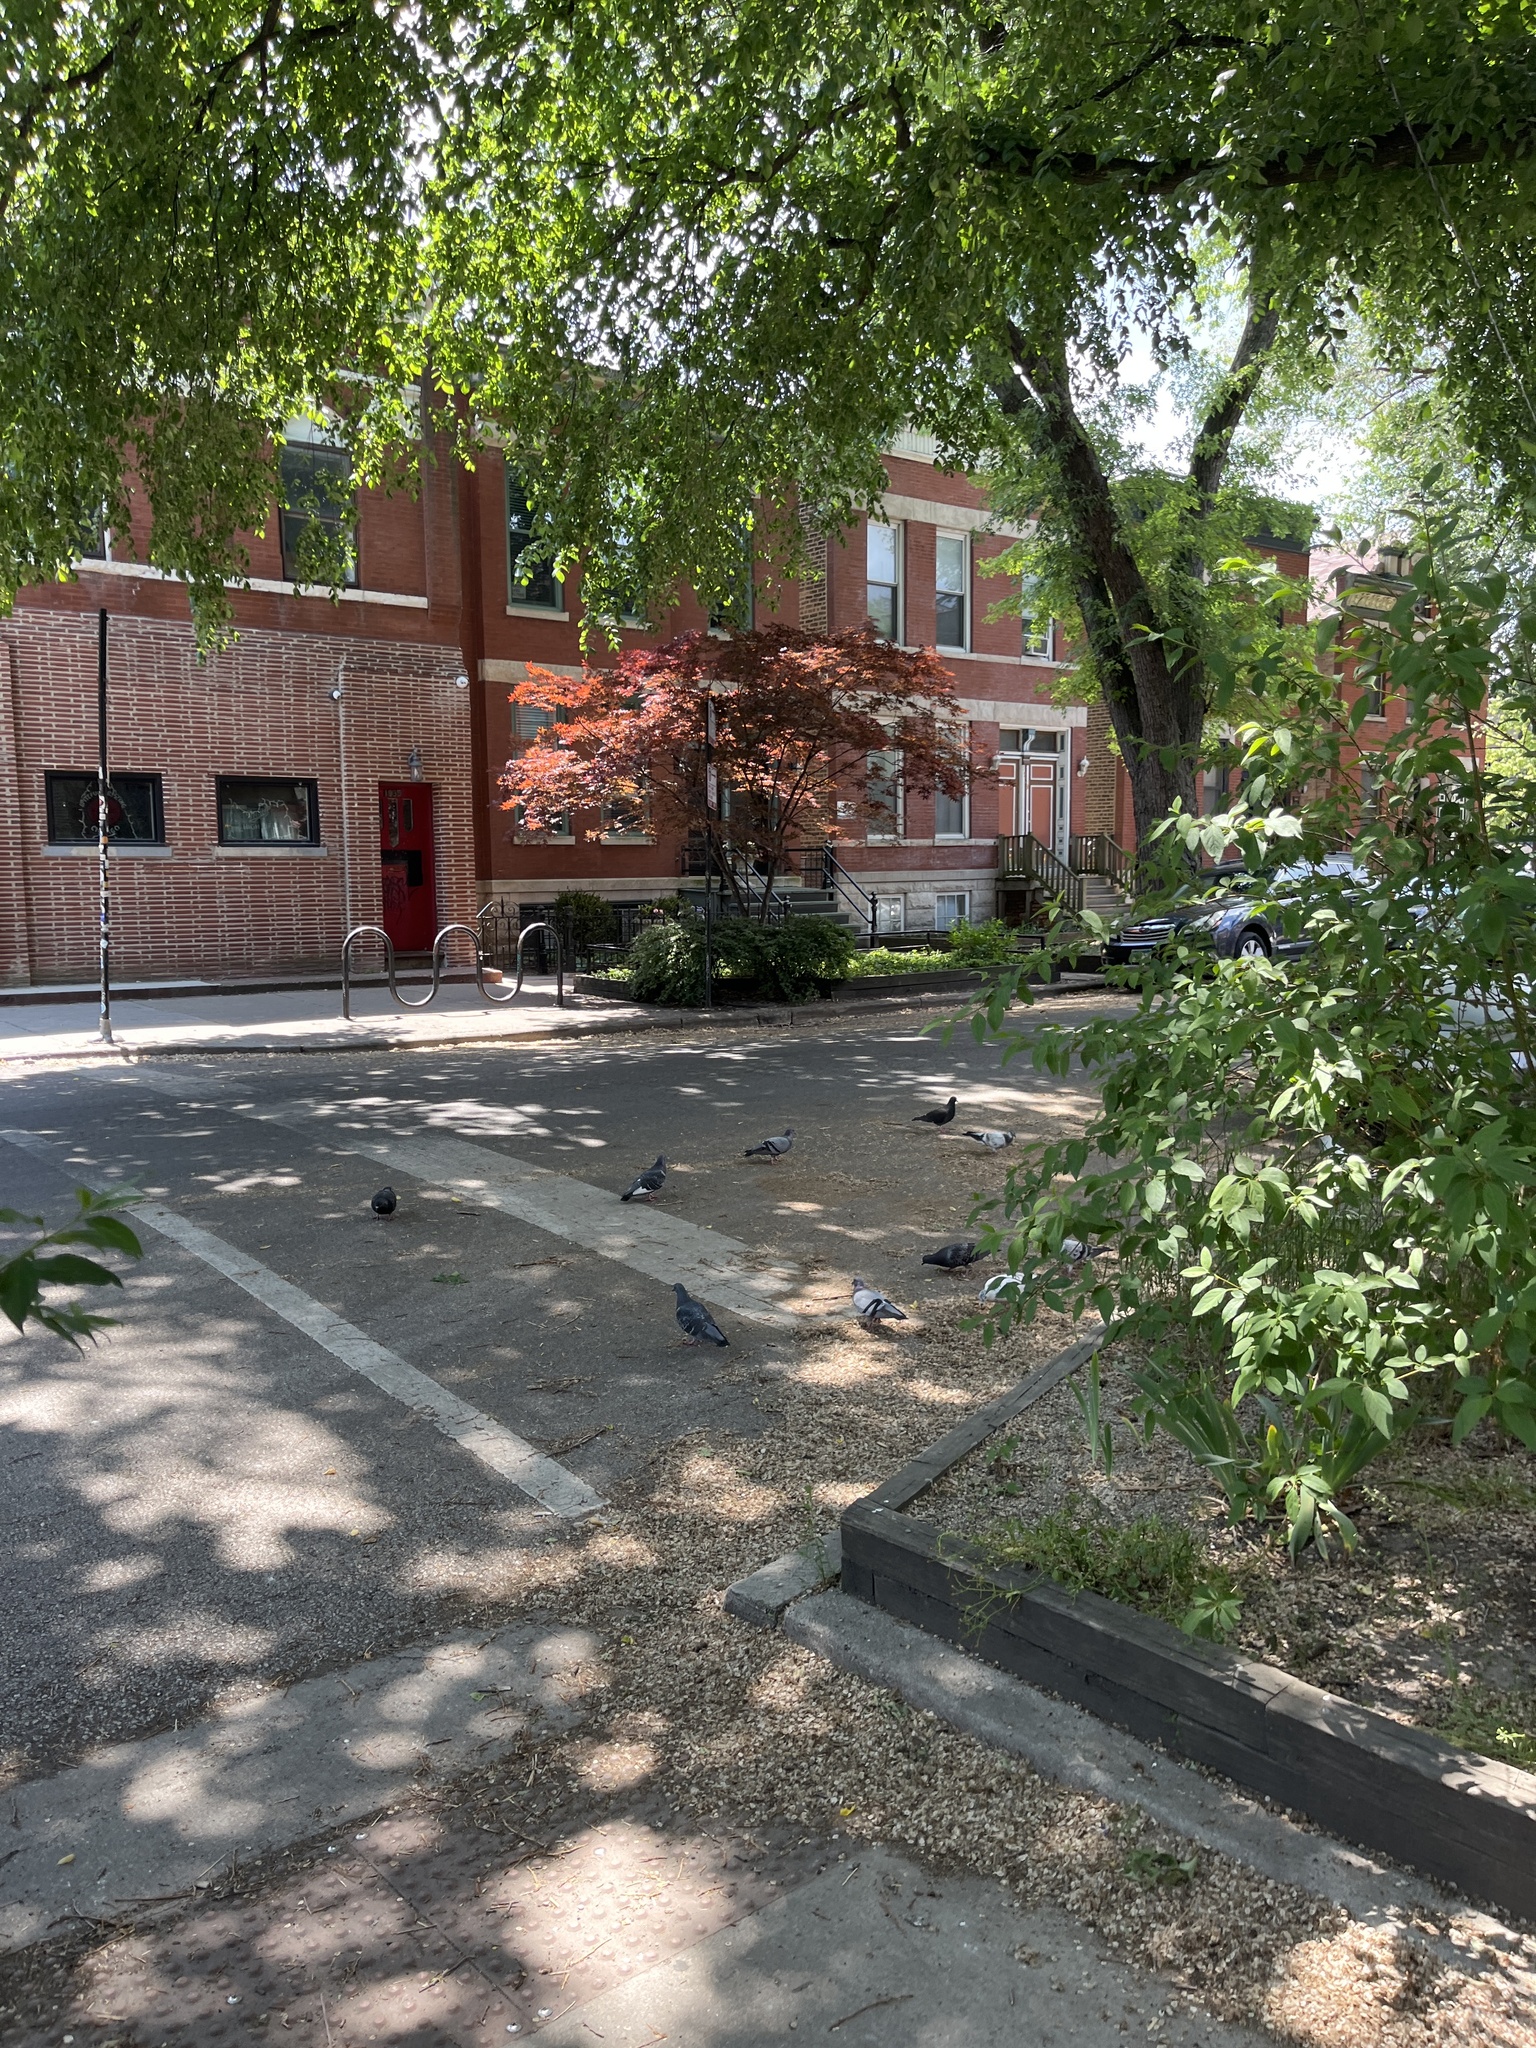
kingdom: Animalia
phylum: Chordata
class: Aves
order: Columbiformes
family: Columbidae
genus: Columba
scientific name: Columba livia
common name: Rock pigeon
